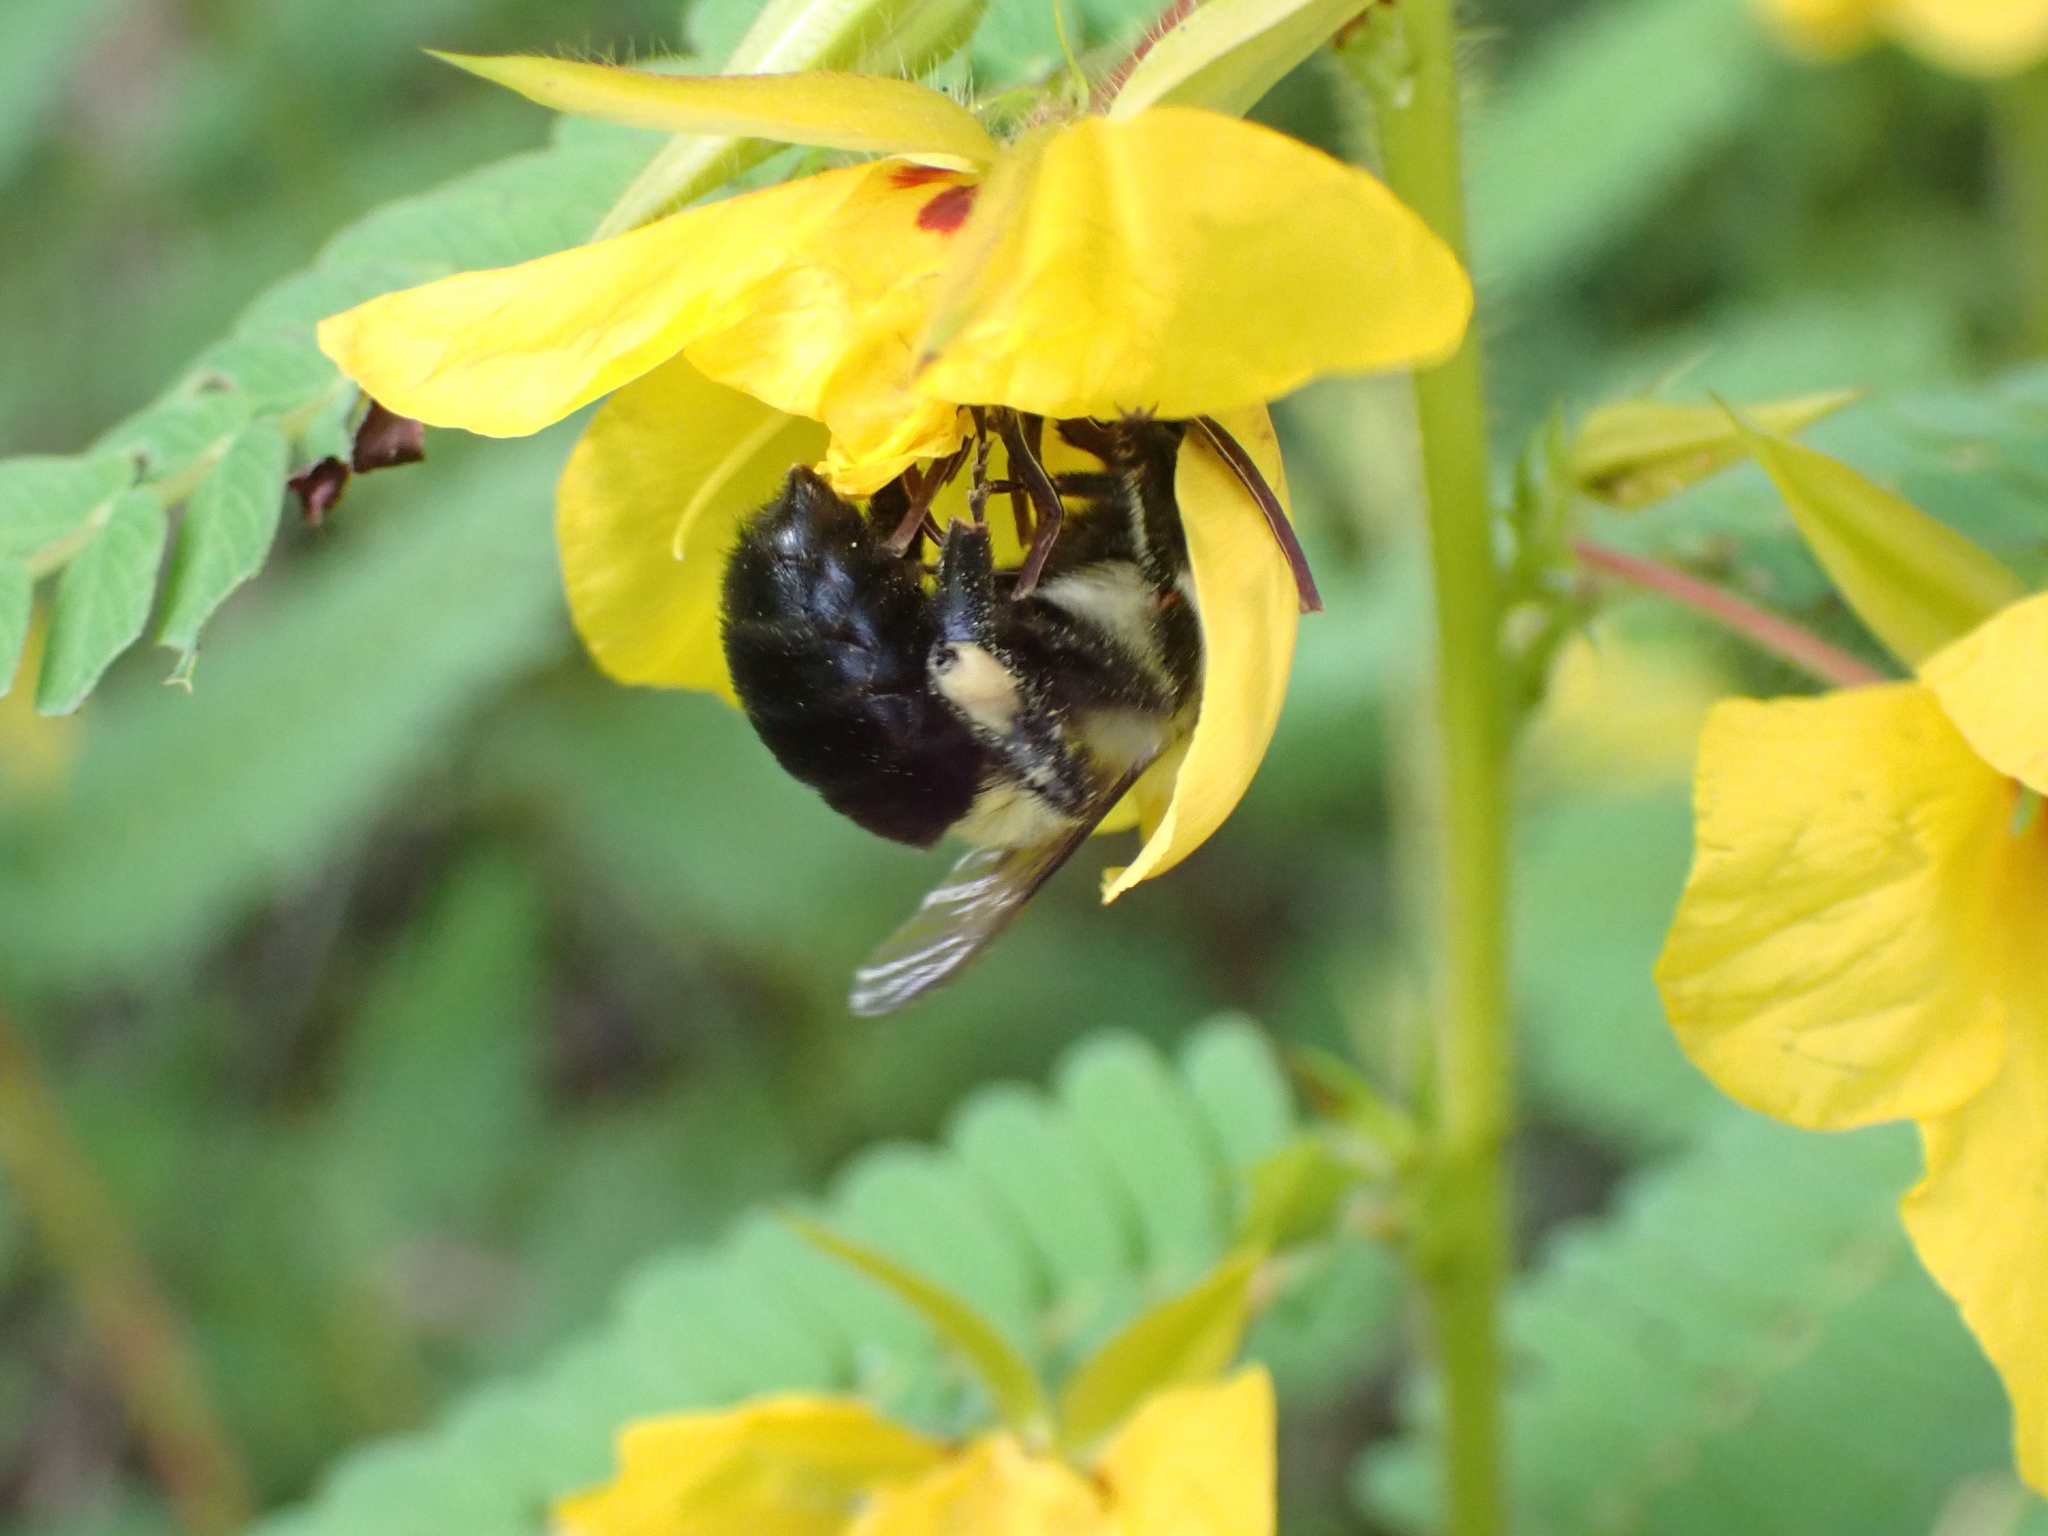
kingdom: Animalia
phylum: Arthropoda
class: Insecta
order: Hymenoptera
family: Apidae
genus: Bombus
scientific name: Bombus impatiens
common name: Common eastern bumble bee
